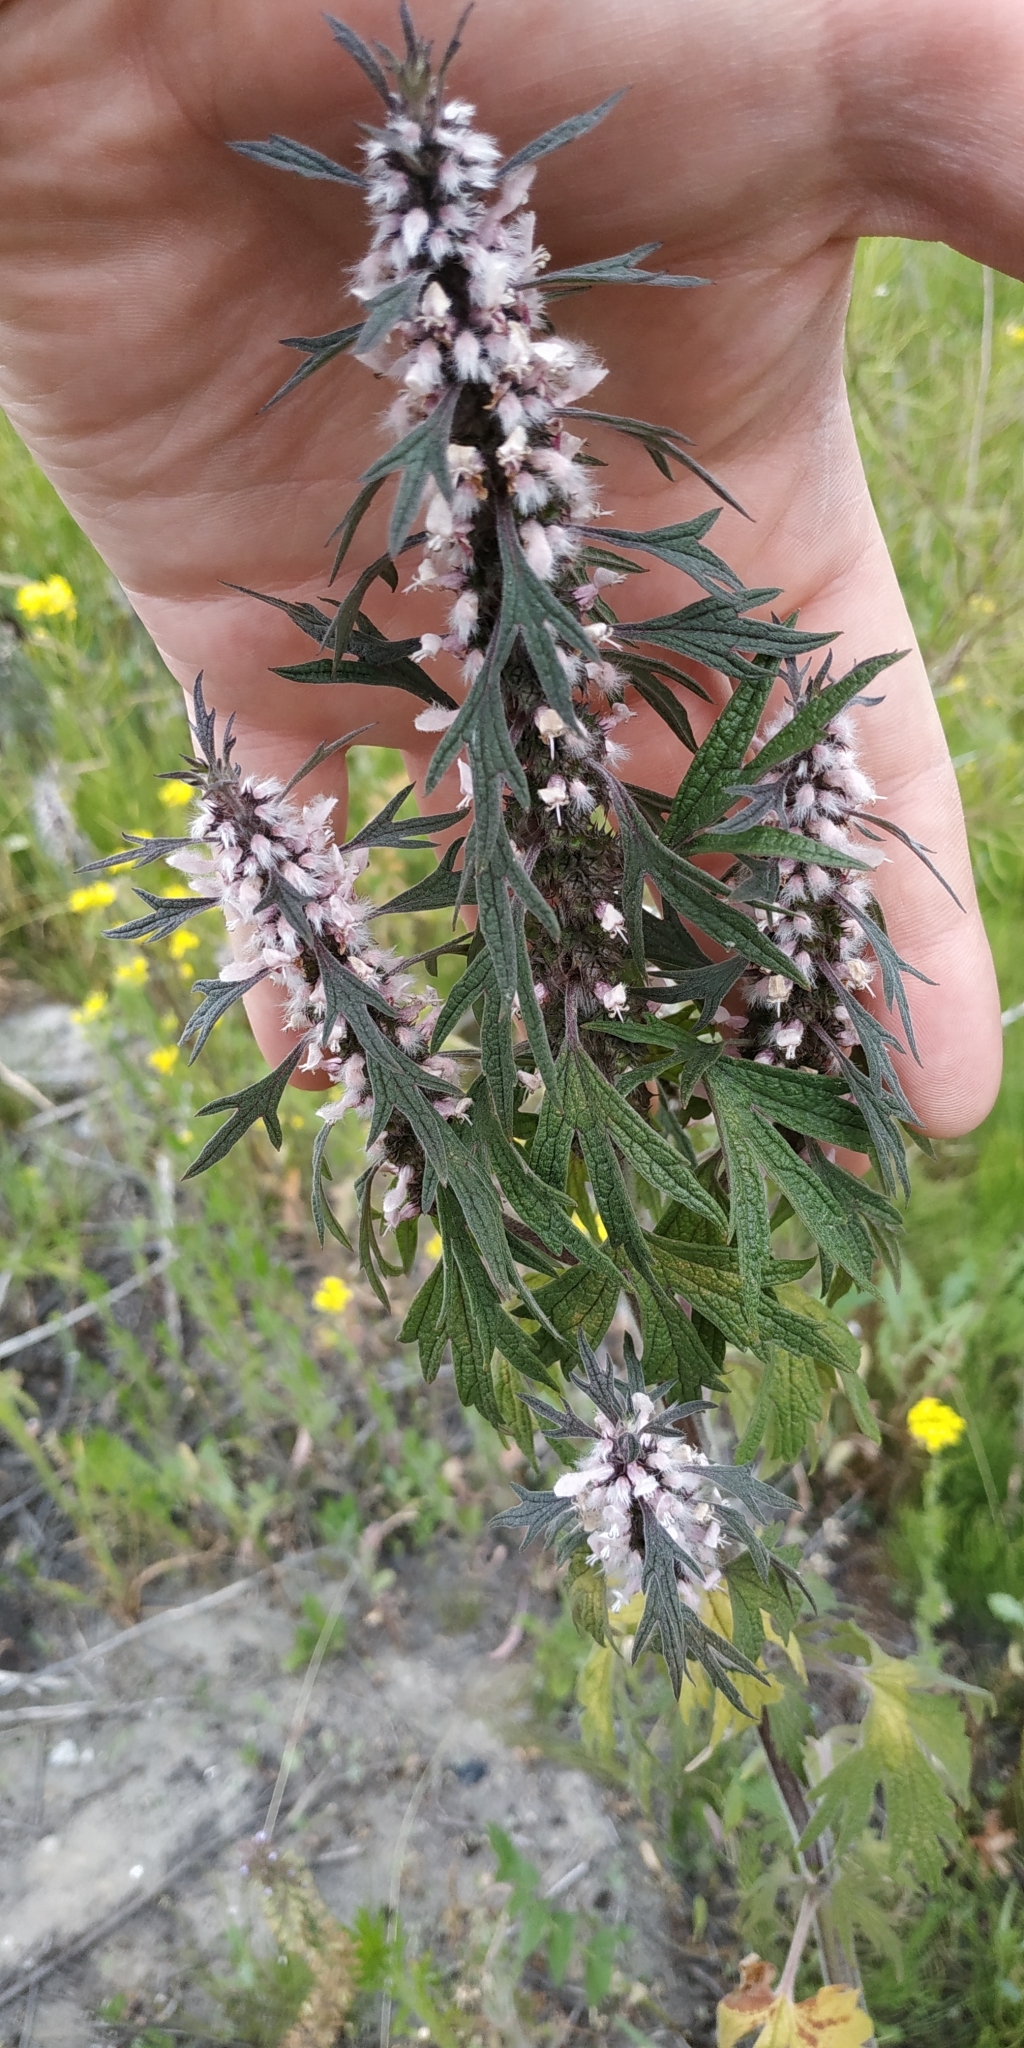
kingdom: Plantae
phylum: Tracheophyta
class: Magnoliopsida
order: Lamiales
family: Lamiaceae
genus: Leonurus
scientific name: Leonurus quinquelobatus
